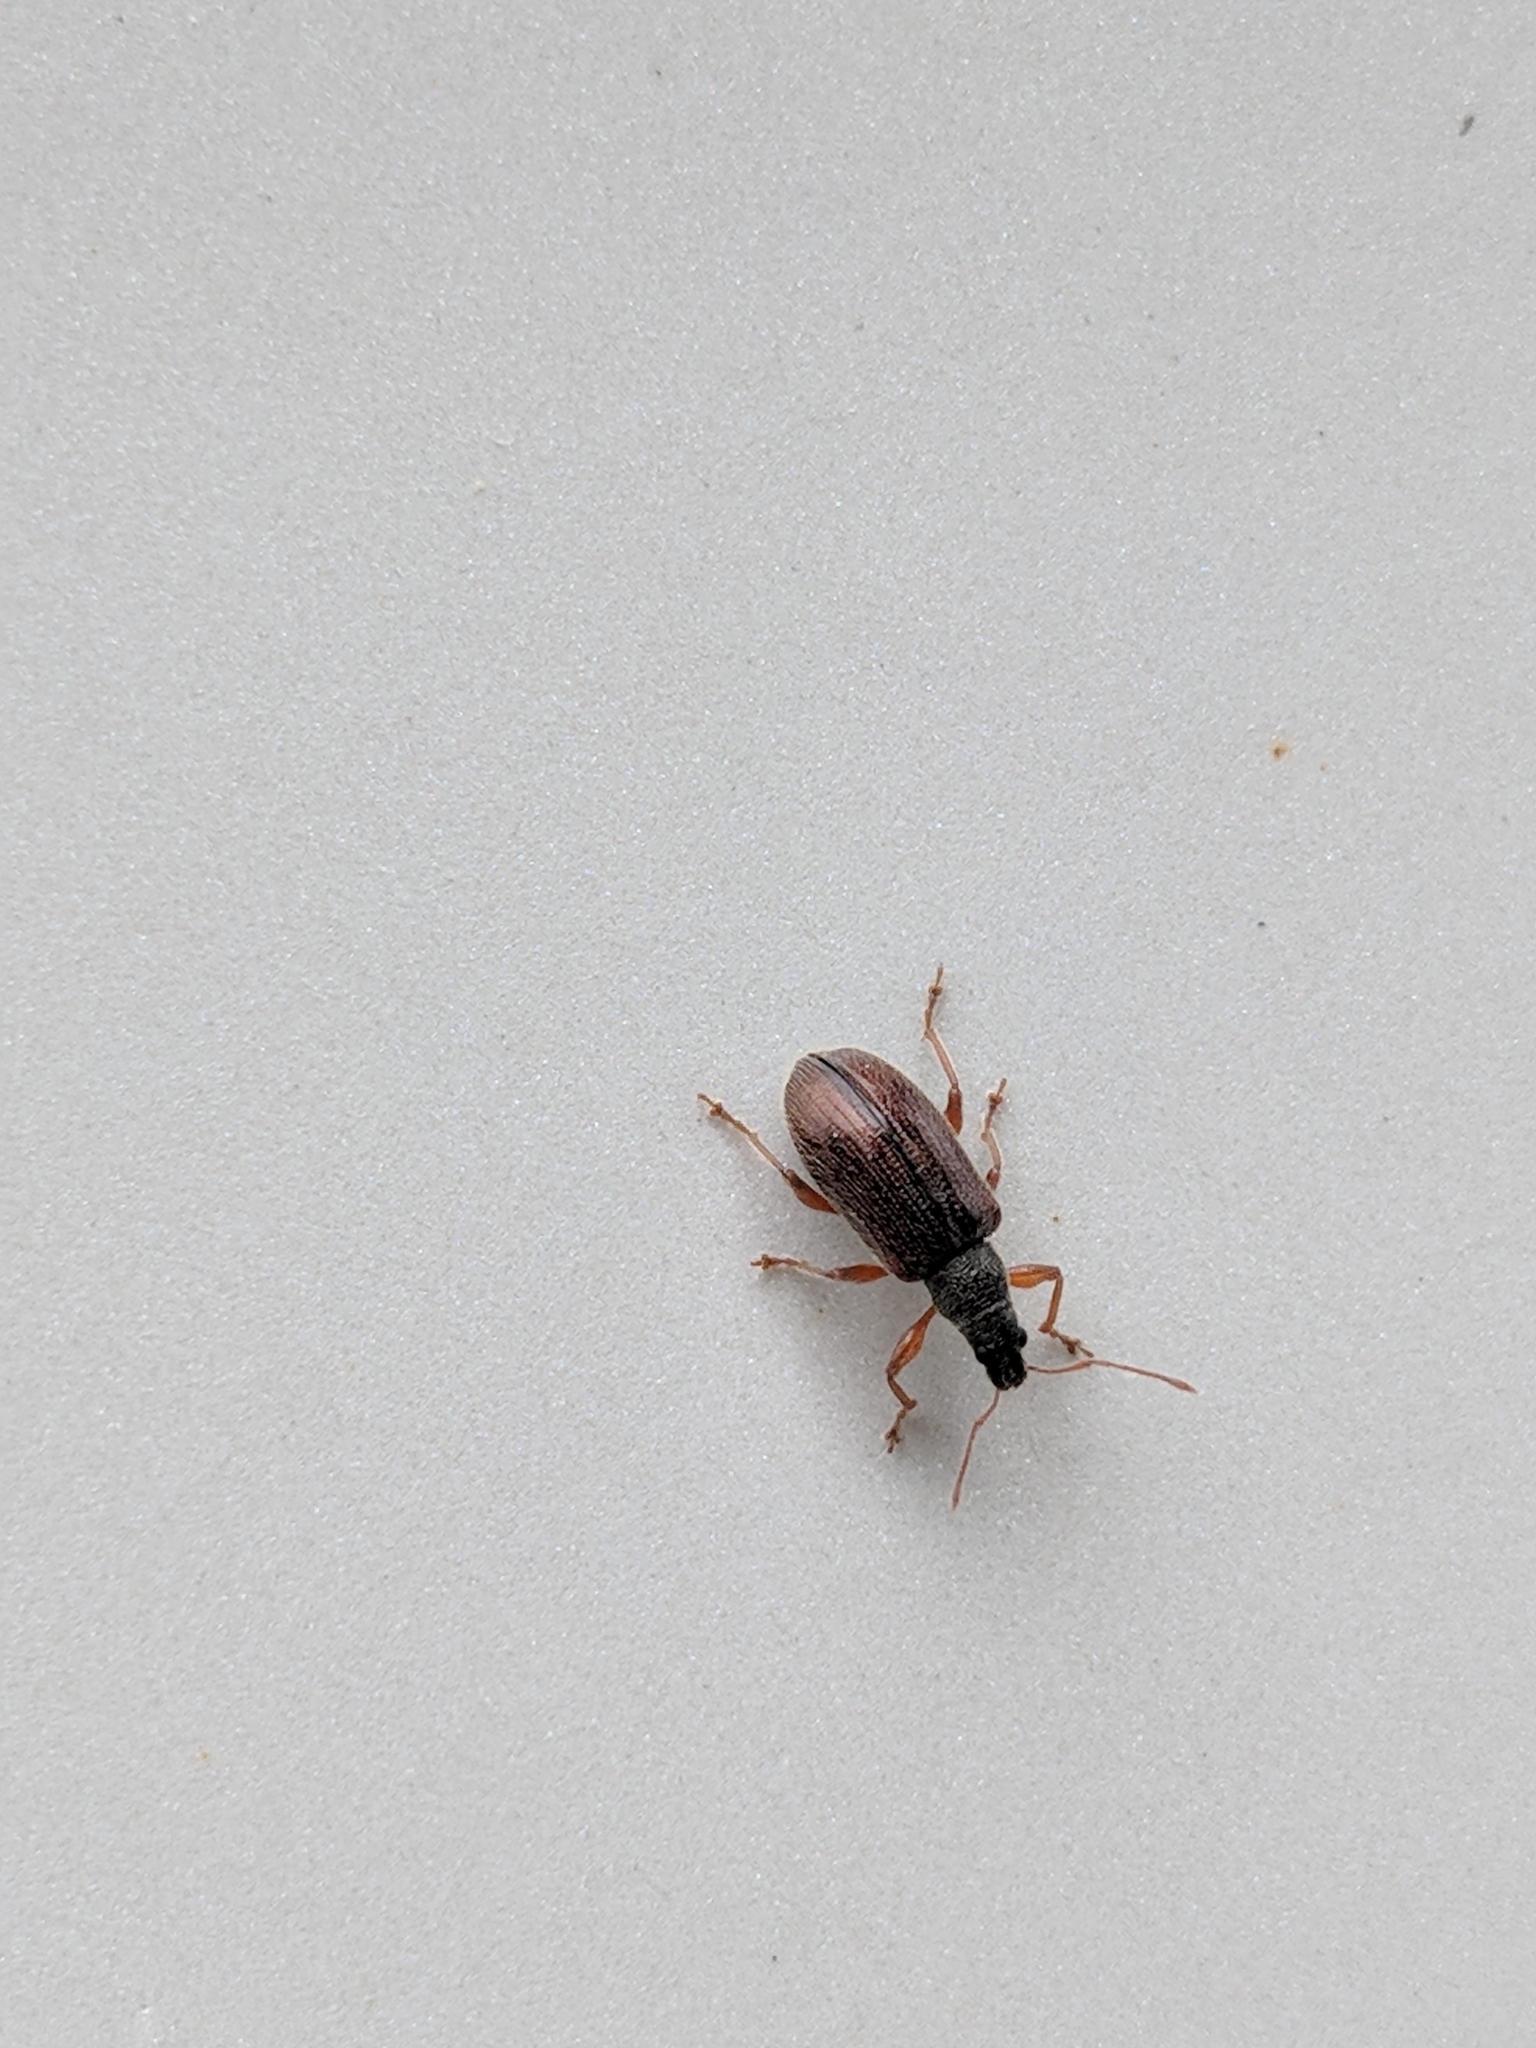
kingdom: Animalia
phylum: Arthropoda
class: Insecta
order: Coleoptera
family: Curculionidae
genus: Phyllobius
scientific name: Phyllobius oblongus
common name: Brown leaf weevil
